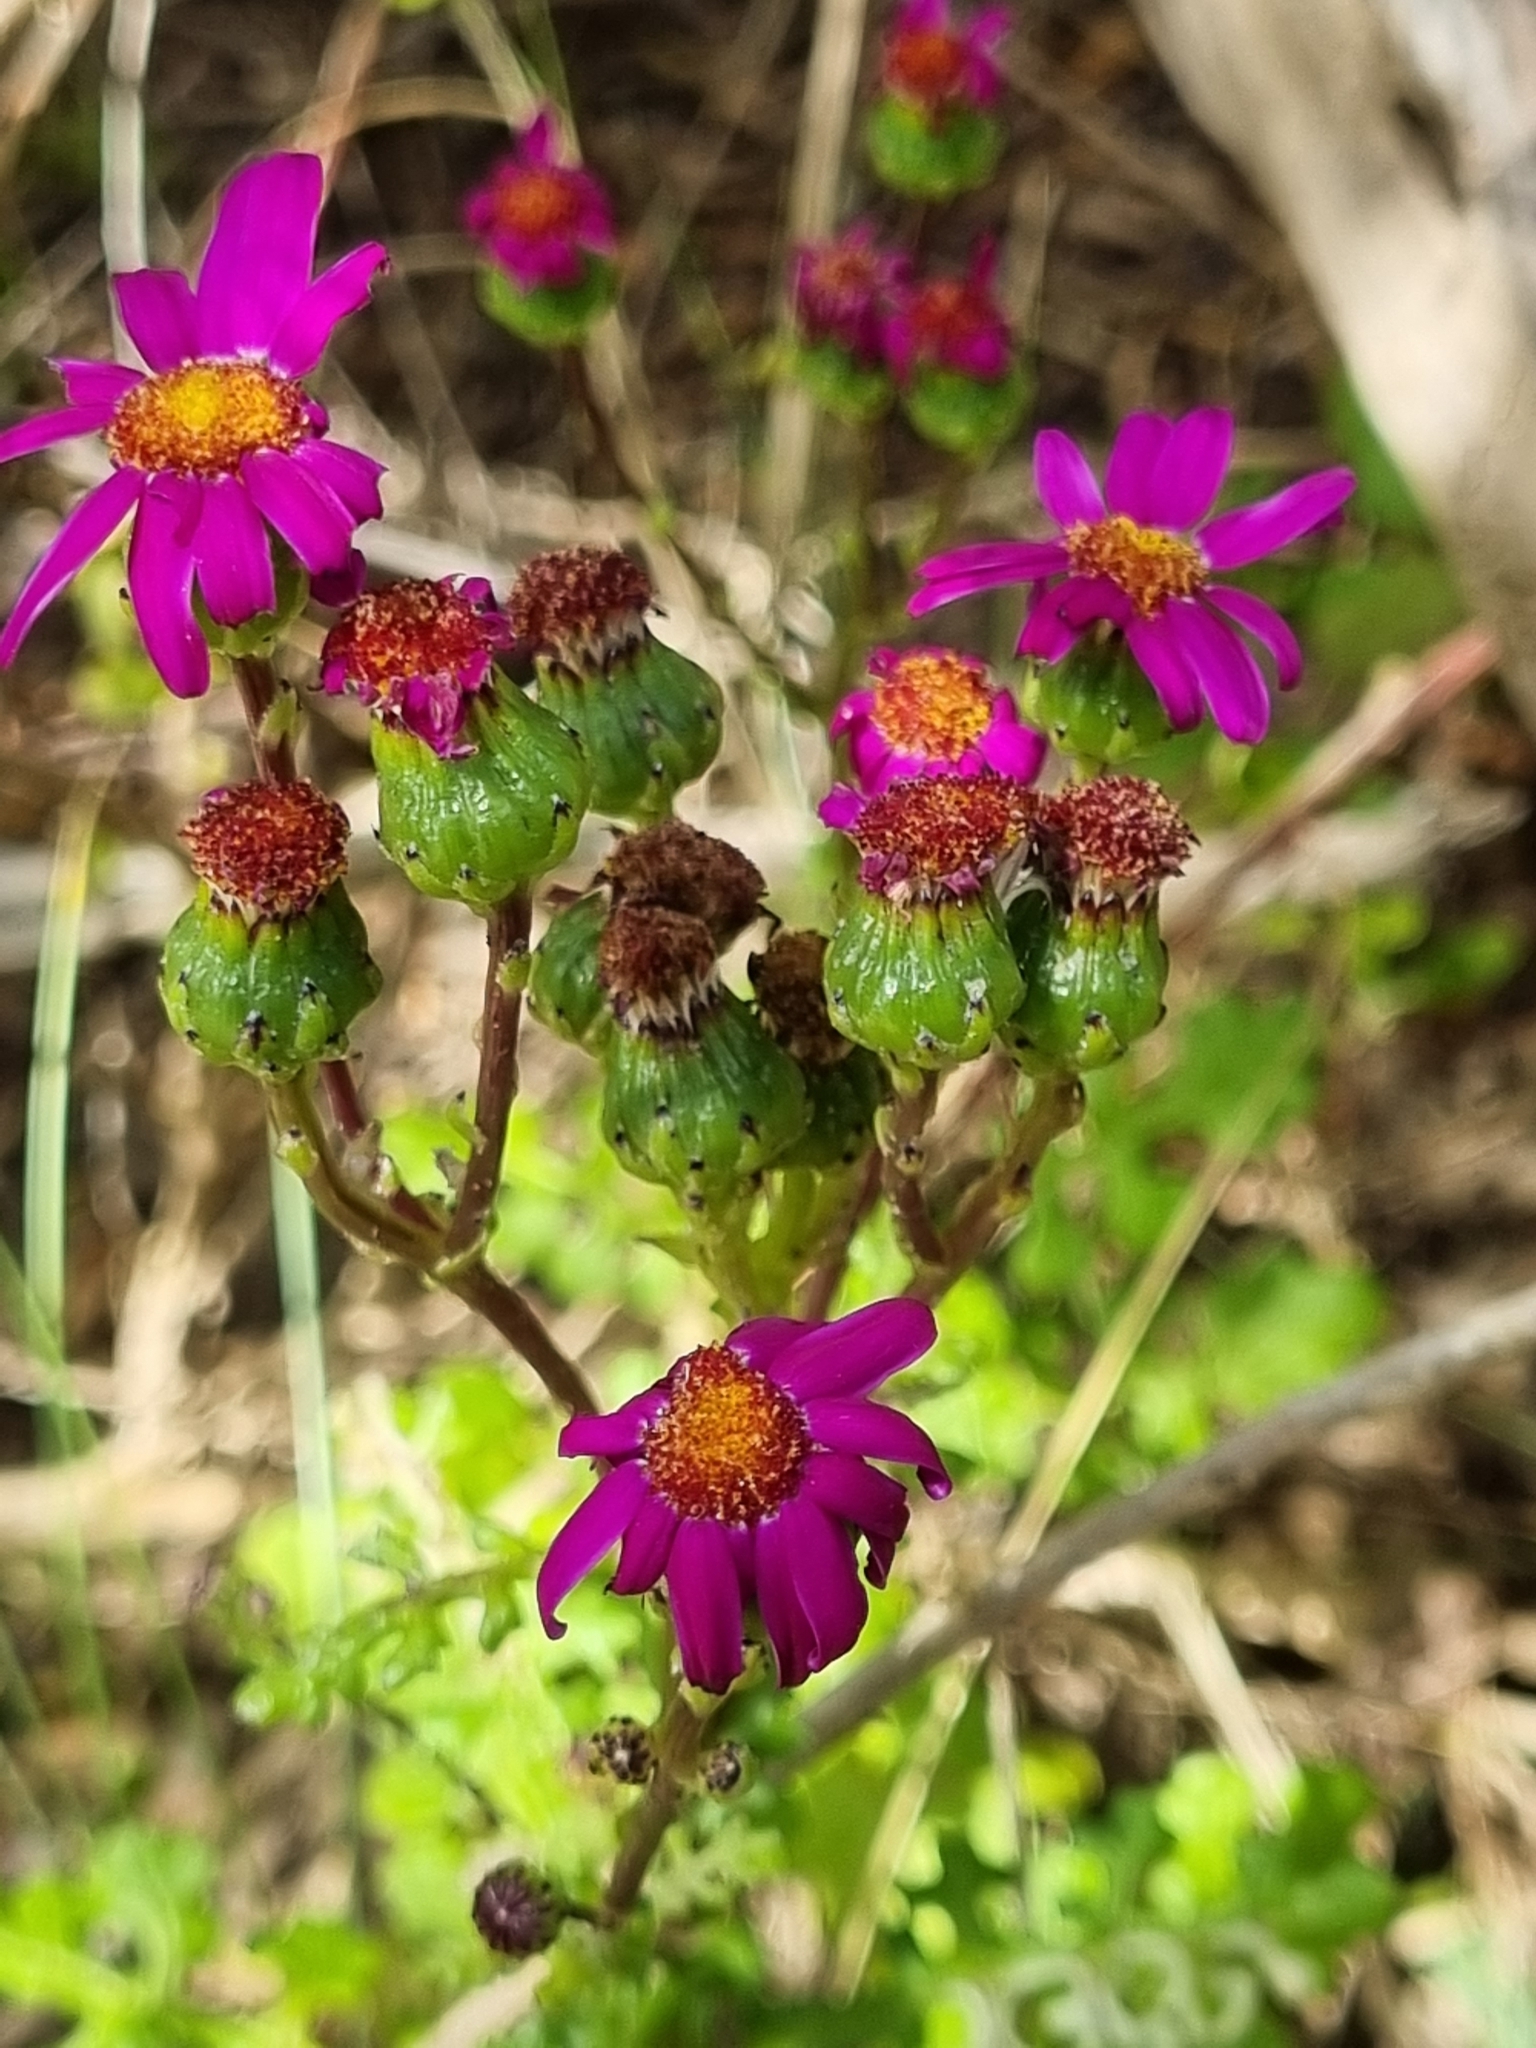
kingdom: Plantae
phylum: Tracheophyta
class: Magnoliopsida
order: Asterales
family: Asteraceae
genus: Senecio
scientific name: Senecio elegans
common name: Purple groundsel
